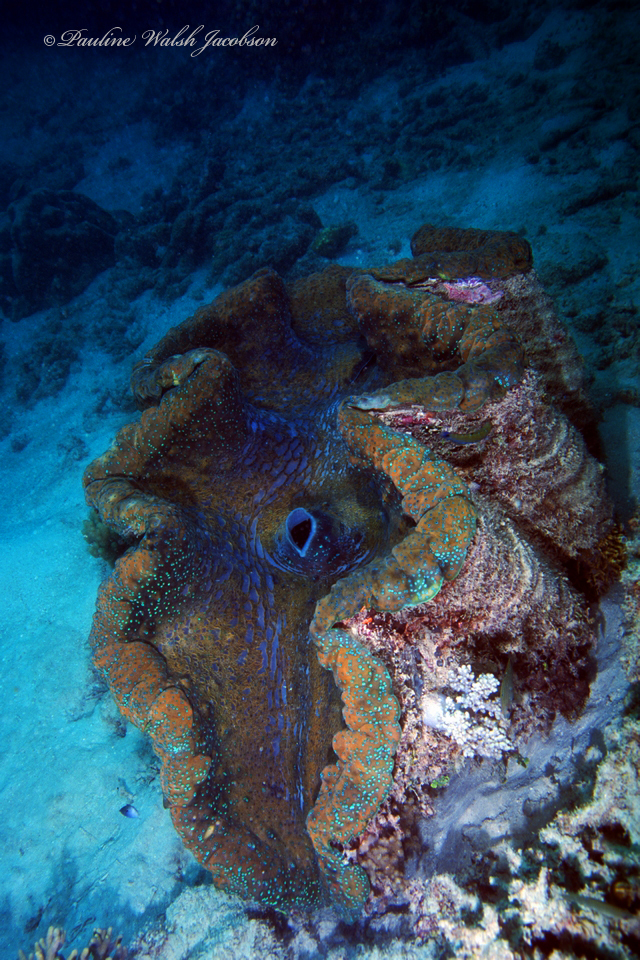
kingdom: Animalia
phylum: Mollusca
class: Bivalvia
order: Cardiida
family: Cardiidae
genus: Tridacna
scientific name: Tridacna gigas
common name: Giant clam
